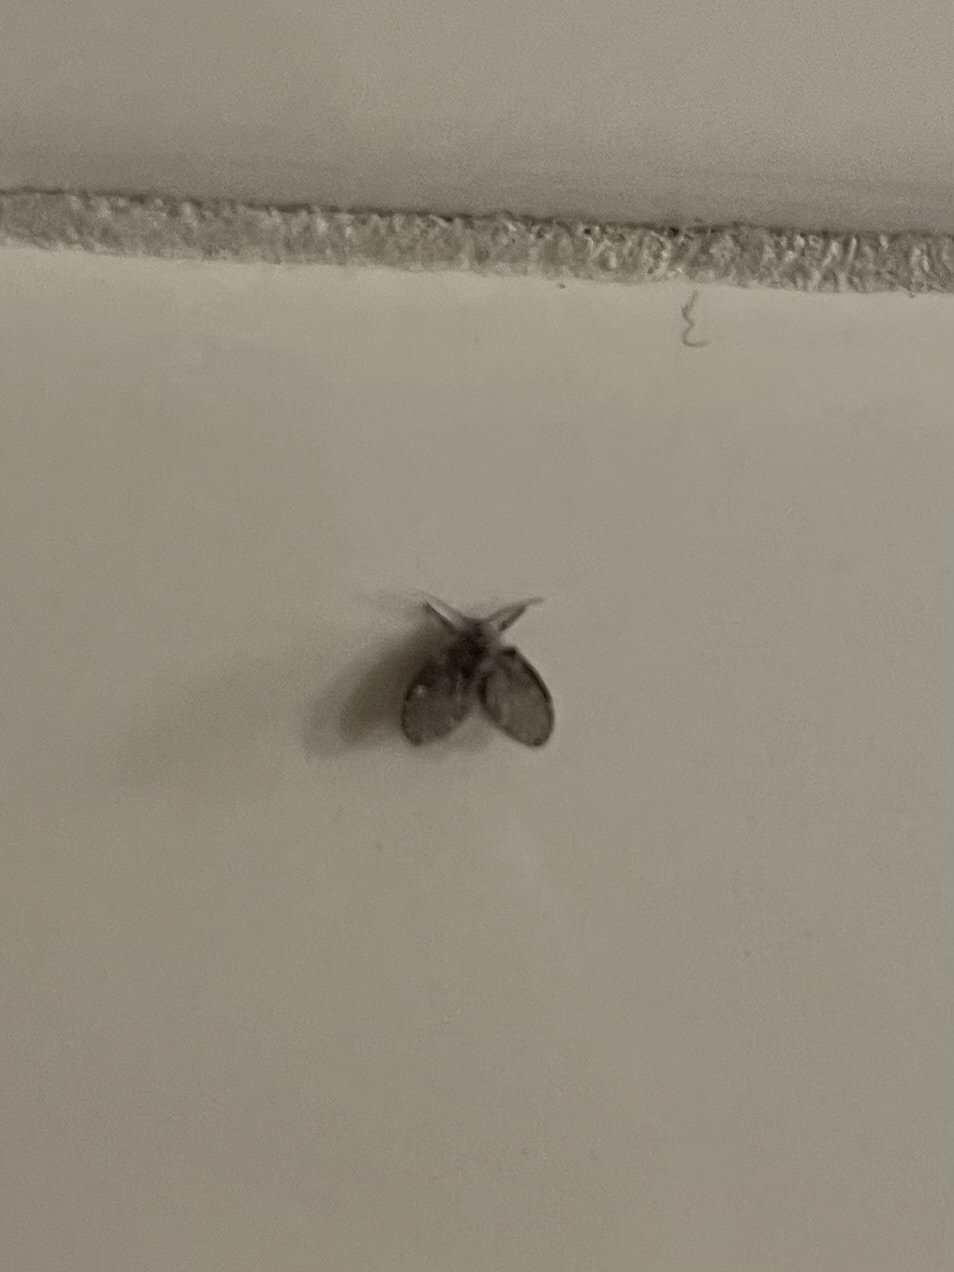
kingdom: Animalia
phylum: Arthropoda
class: Insecta
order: Diptera
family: Psychodidae
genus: Clogmia
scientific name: Clogmia albipunctatus
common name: White-spotted moth fly
